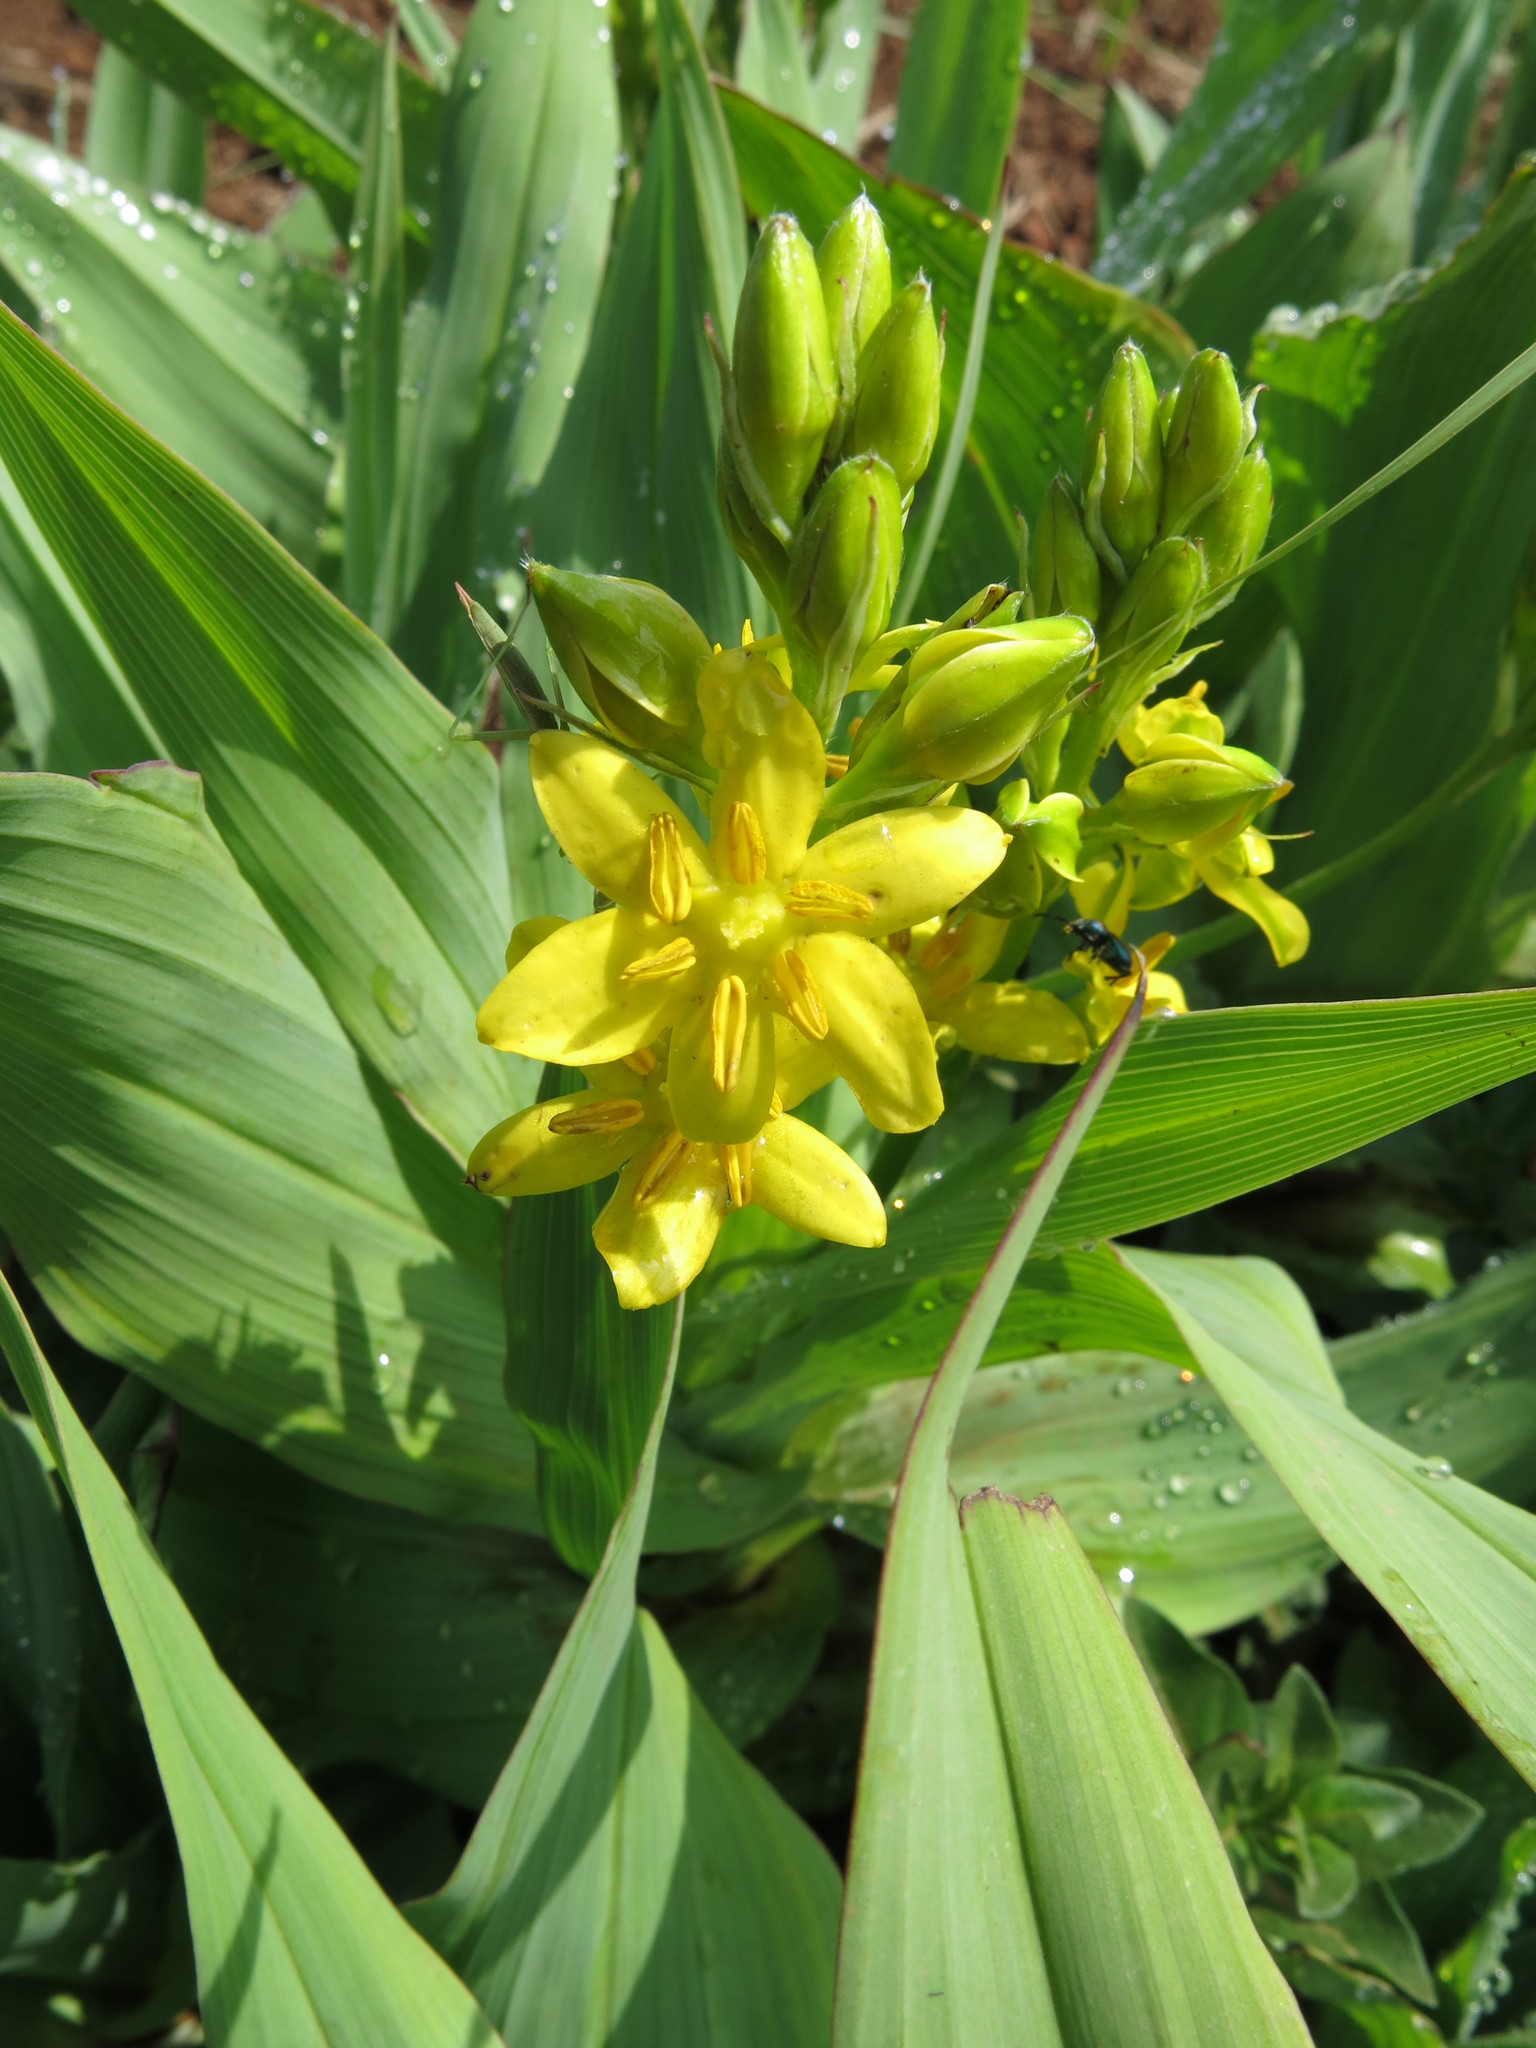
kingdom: Plantae
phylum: Tracheophyta
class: Liliopsida
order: Asparagales
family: Hypoxidaceae
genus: Hypoxis
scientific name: Hypoxis colchicifolia
